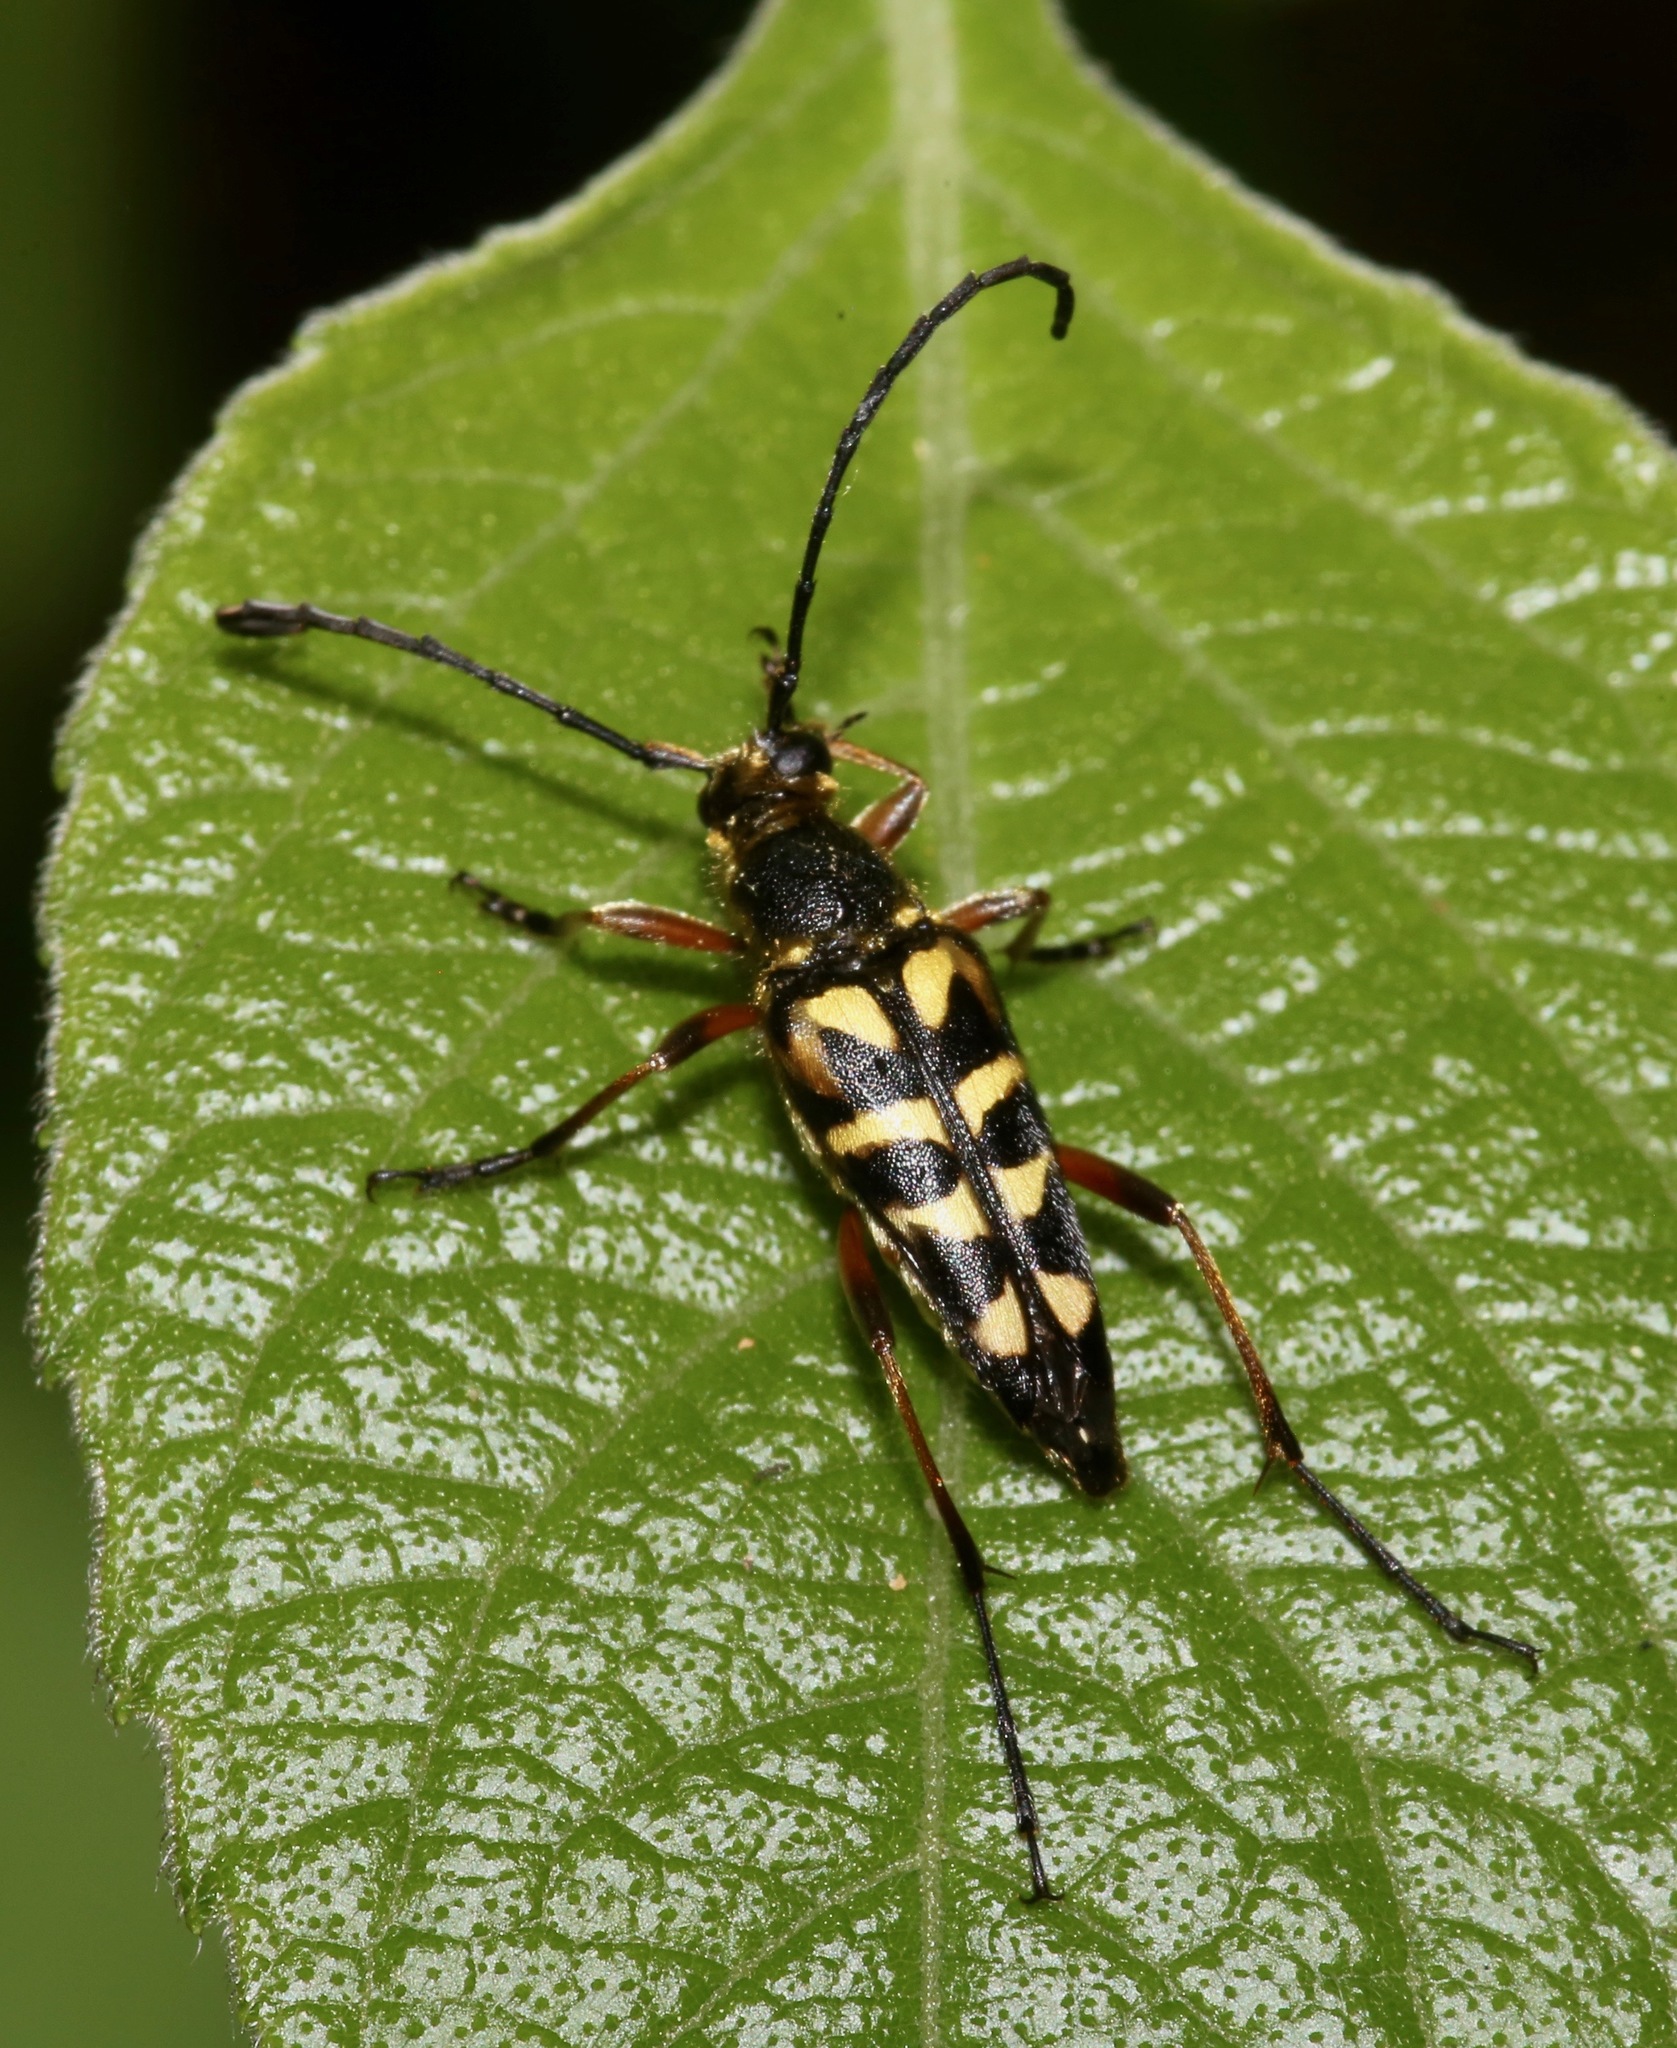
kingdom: Animalia
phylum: Arthropoda
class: Insecta
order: Coleoptera
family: Cerambycidae
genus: Typocerus
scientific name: Typocerus zebra
